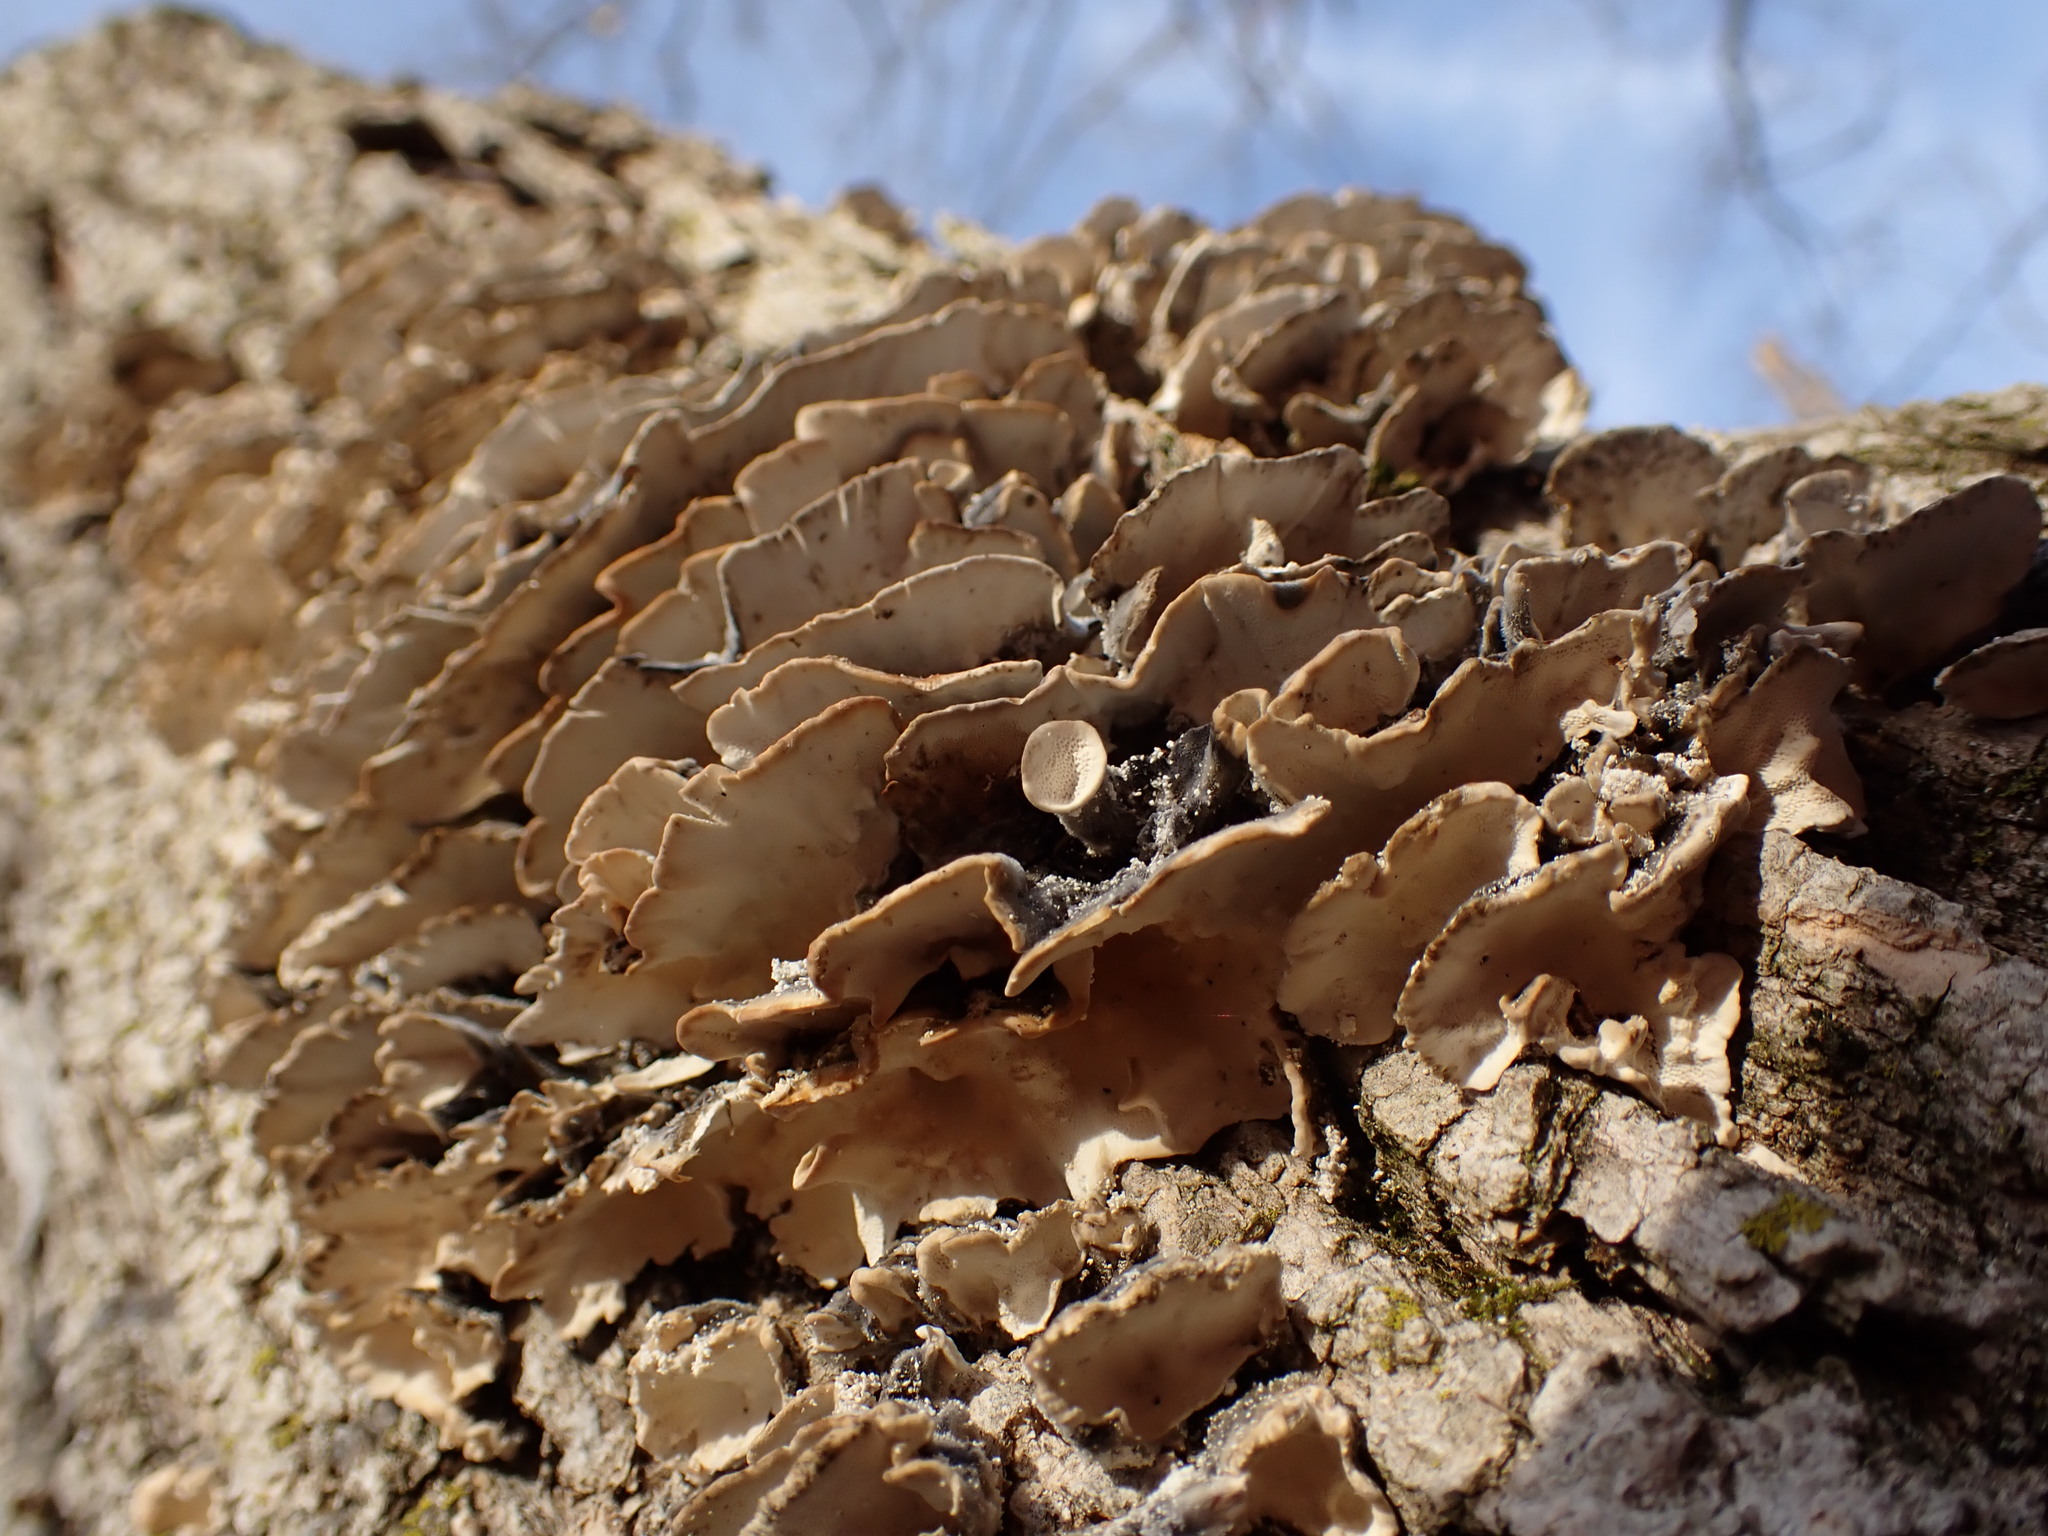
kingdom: Fungi
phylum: Basidiomycota
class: Agaricomycetes
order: Polyporales
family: Polyporaceae
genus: Trametes
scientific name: Trametes versicolor
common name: Turkeytail
